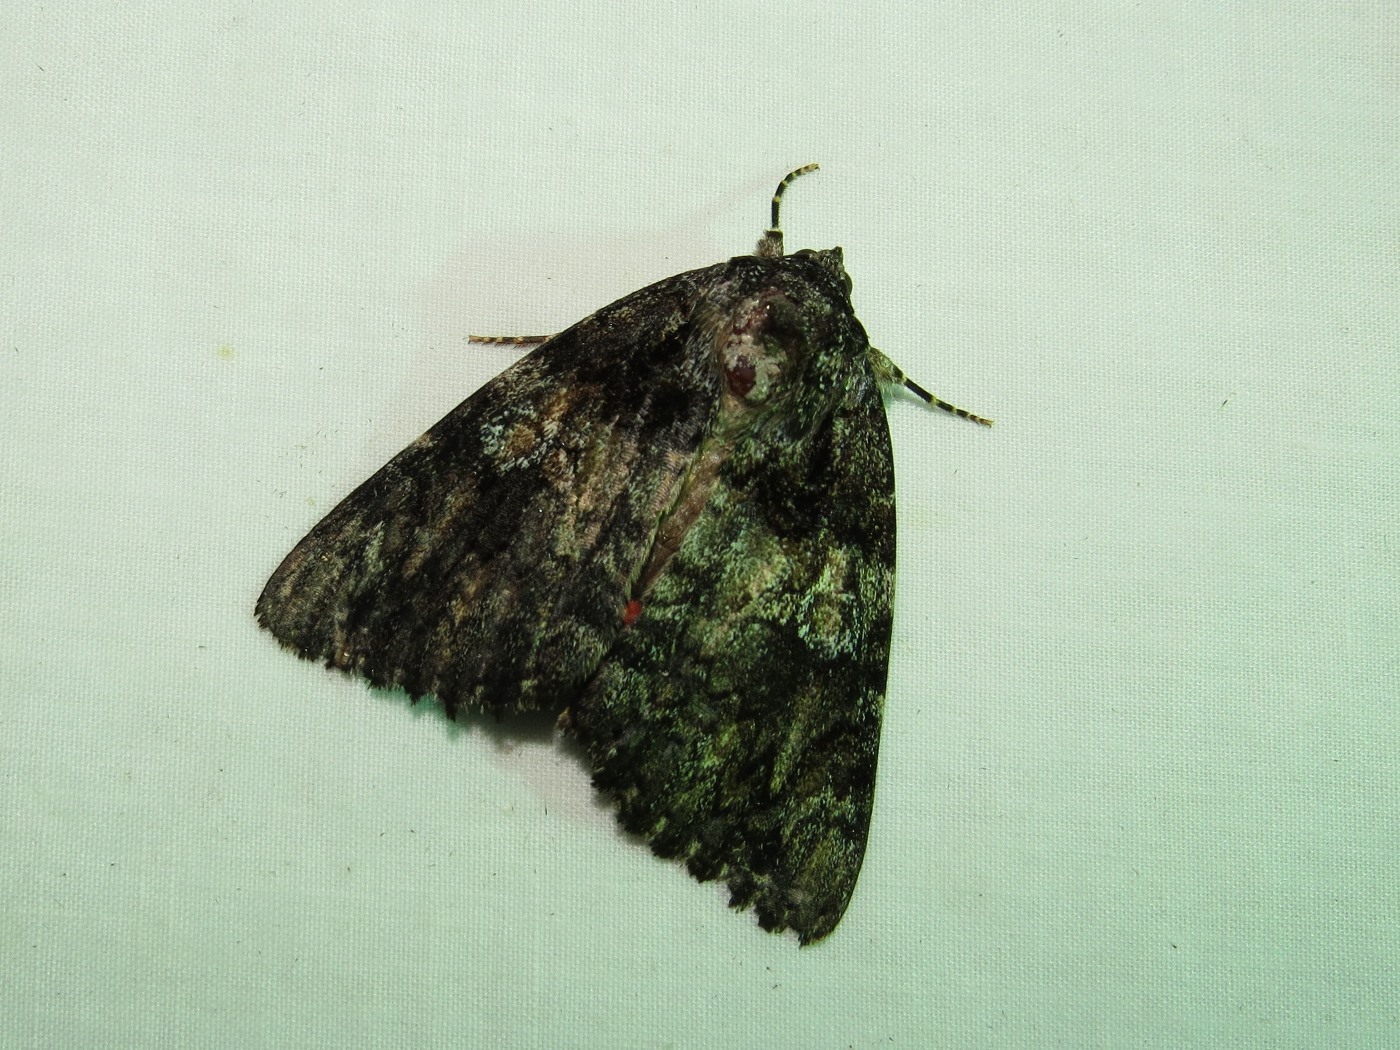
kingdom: Animalia
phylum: Arthropoda
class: Insecta
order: Lepidoptera
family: Erebidae
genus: Catocala
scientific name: Catocala ilia
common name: Ilia underwing
